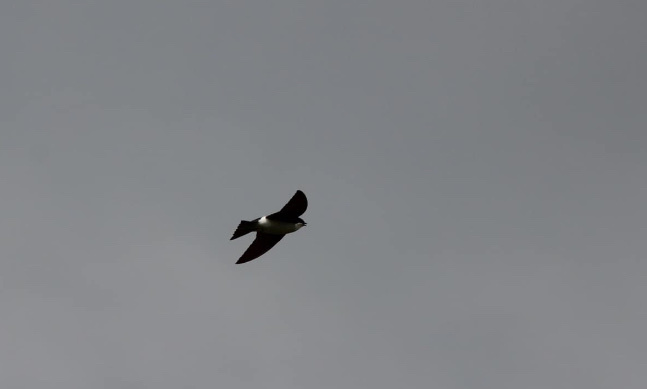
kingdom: Animalia
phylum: Chordata
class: Aves
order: Passeriformes
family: Hirundinidae
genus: Tachycineta
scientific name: Tachycineta thalassina
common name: Violet-green swallow
